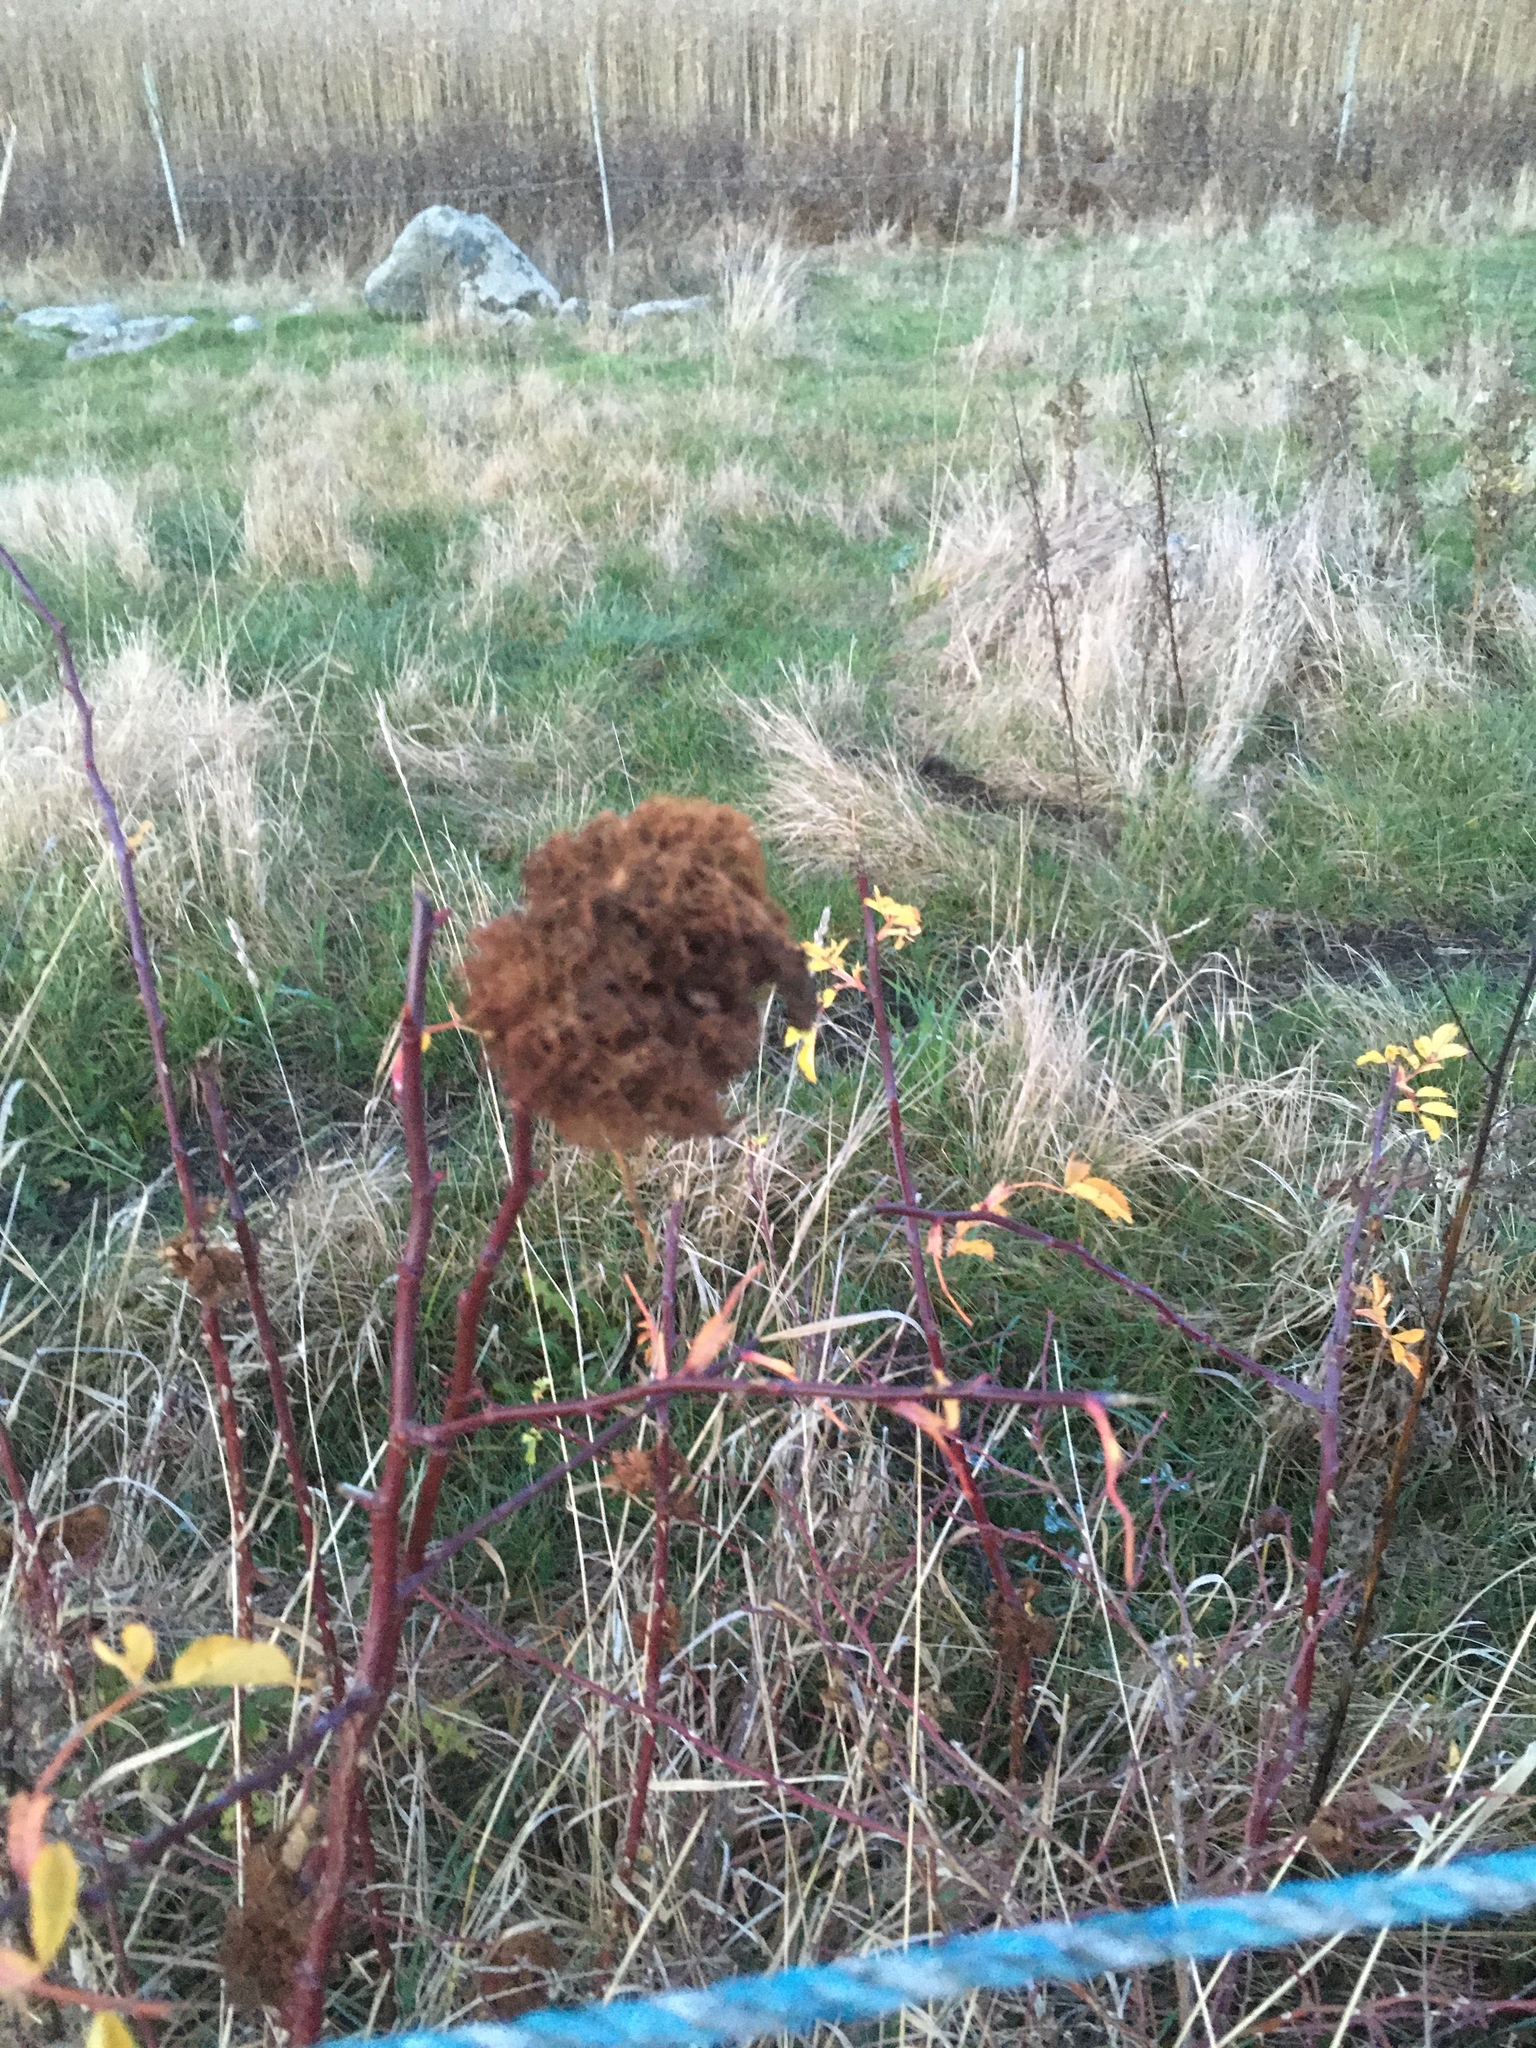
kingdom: Animalia
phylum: Arthropoda
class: Insecta
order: Hymenoptera
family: Cynipidae
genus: Diplolepis
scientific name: Diplolepis rosae
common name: Bedeguar gall
